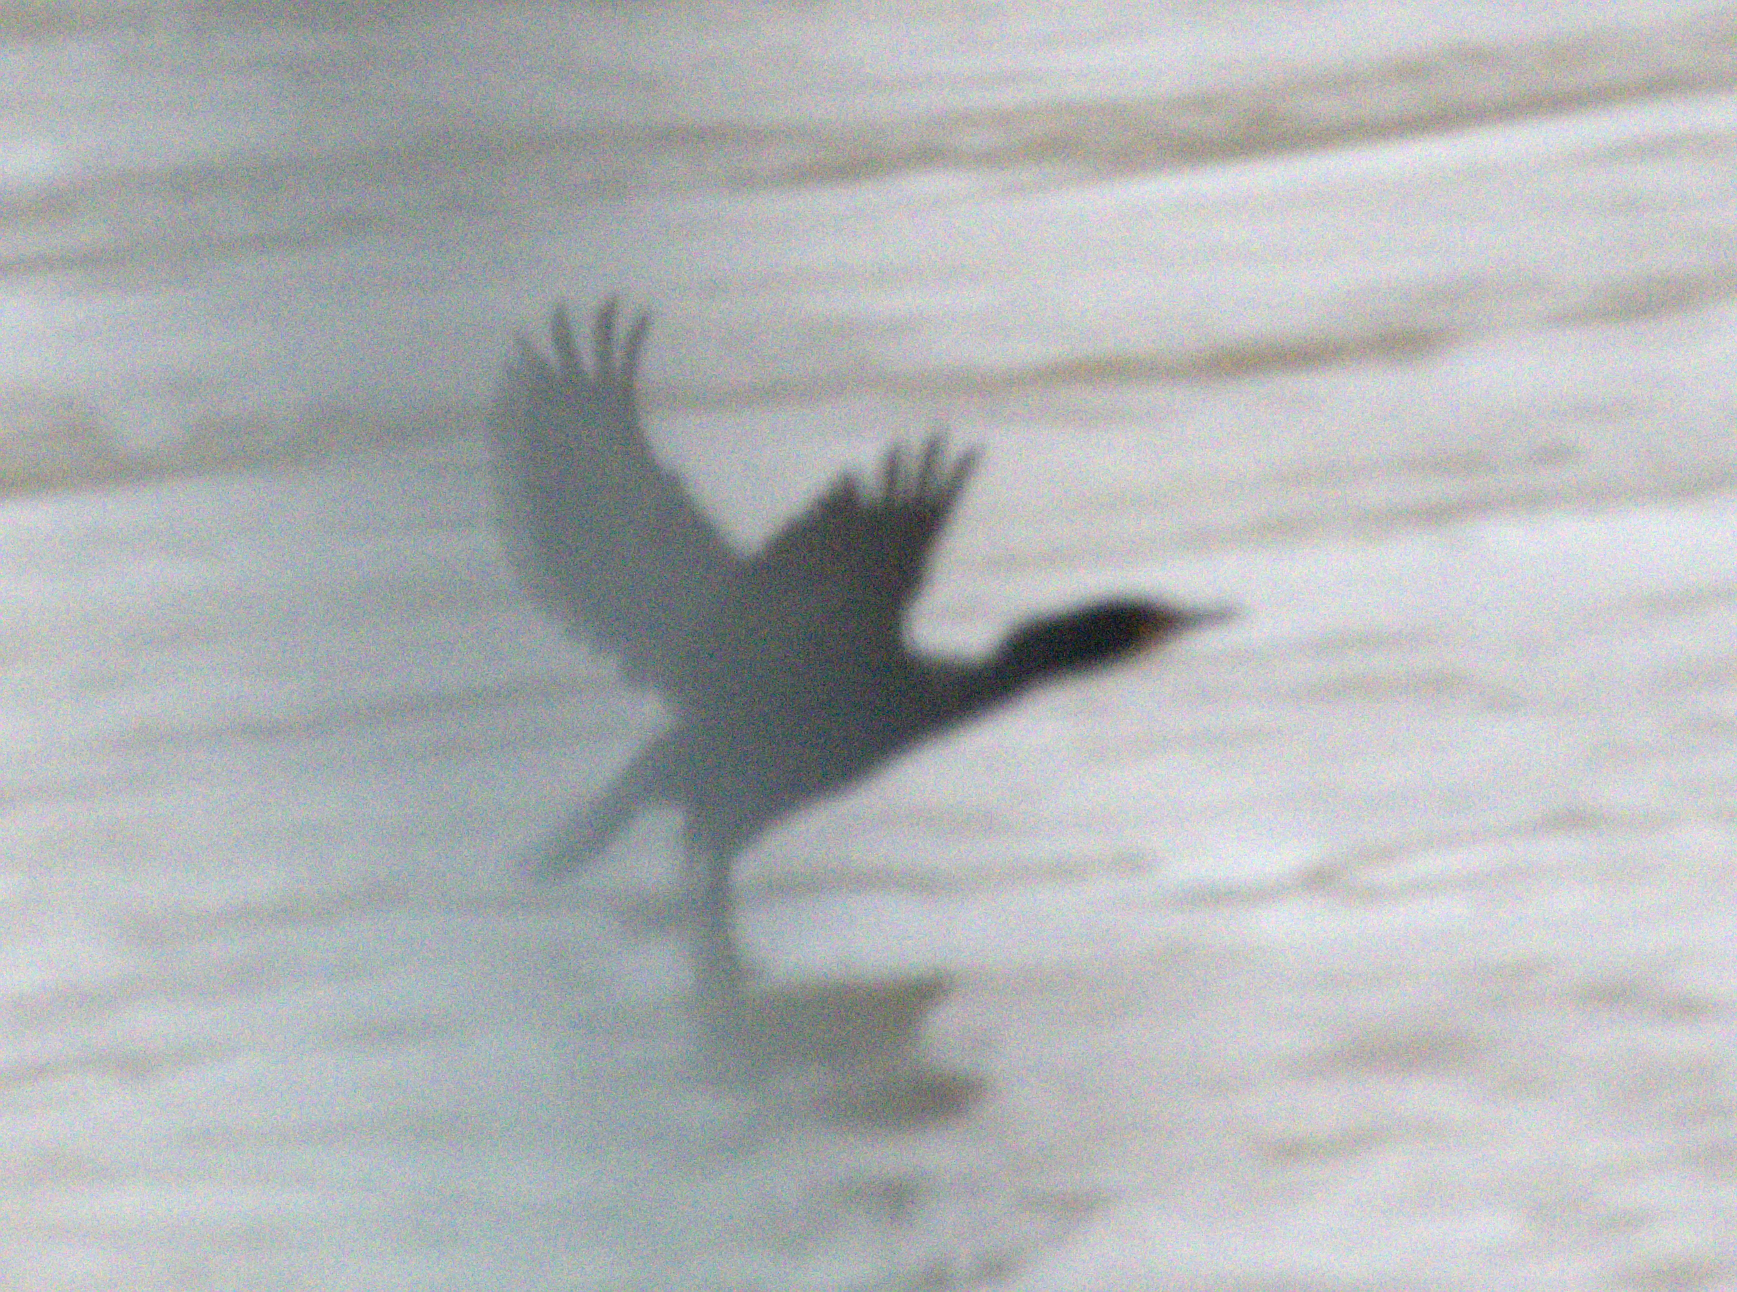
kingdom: Animalia
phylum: Chordata
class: Aves
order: Suliformes
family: Phalacrocoracidae
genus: Phalacrocorax
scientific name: Phalacrocorax auritus
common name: Double-crested cormorant
